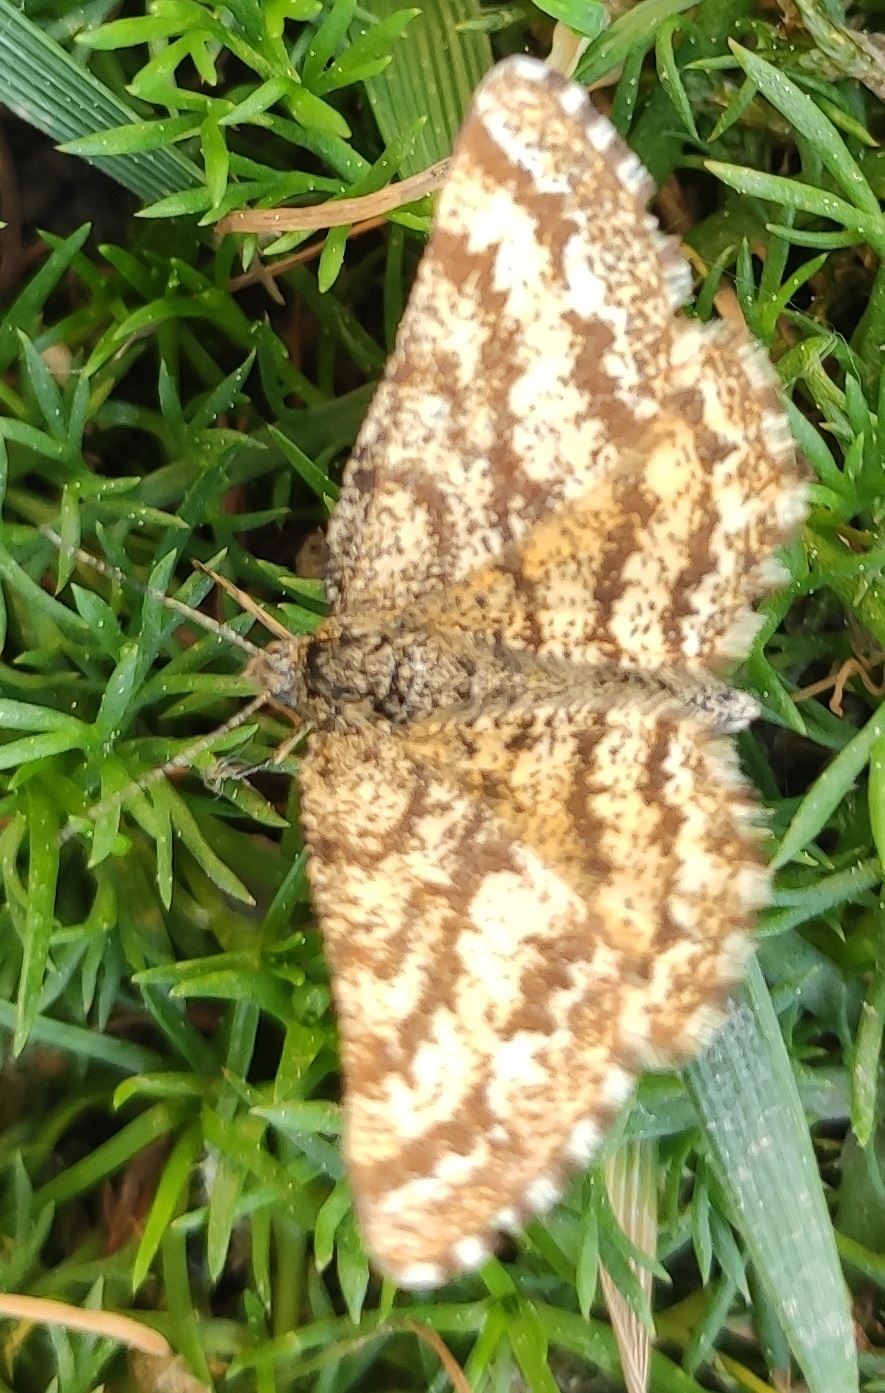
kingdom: Animalia
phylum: Arthropoda
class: Insecta
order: Lepidoptera
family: Geometridae
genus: Ematurga
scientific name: Ematurga atomaria
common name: Common heath
